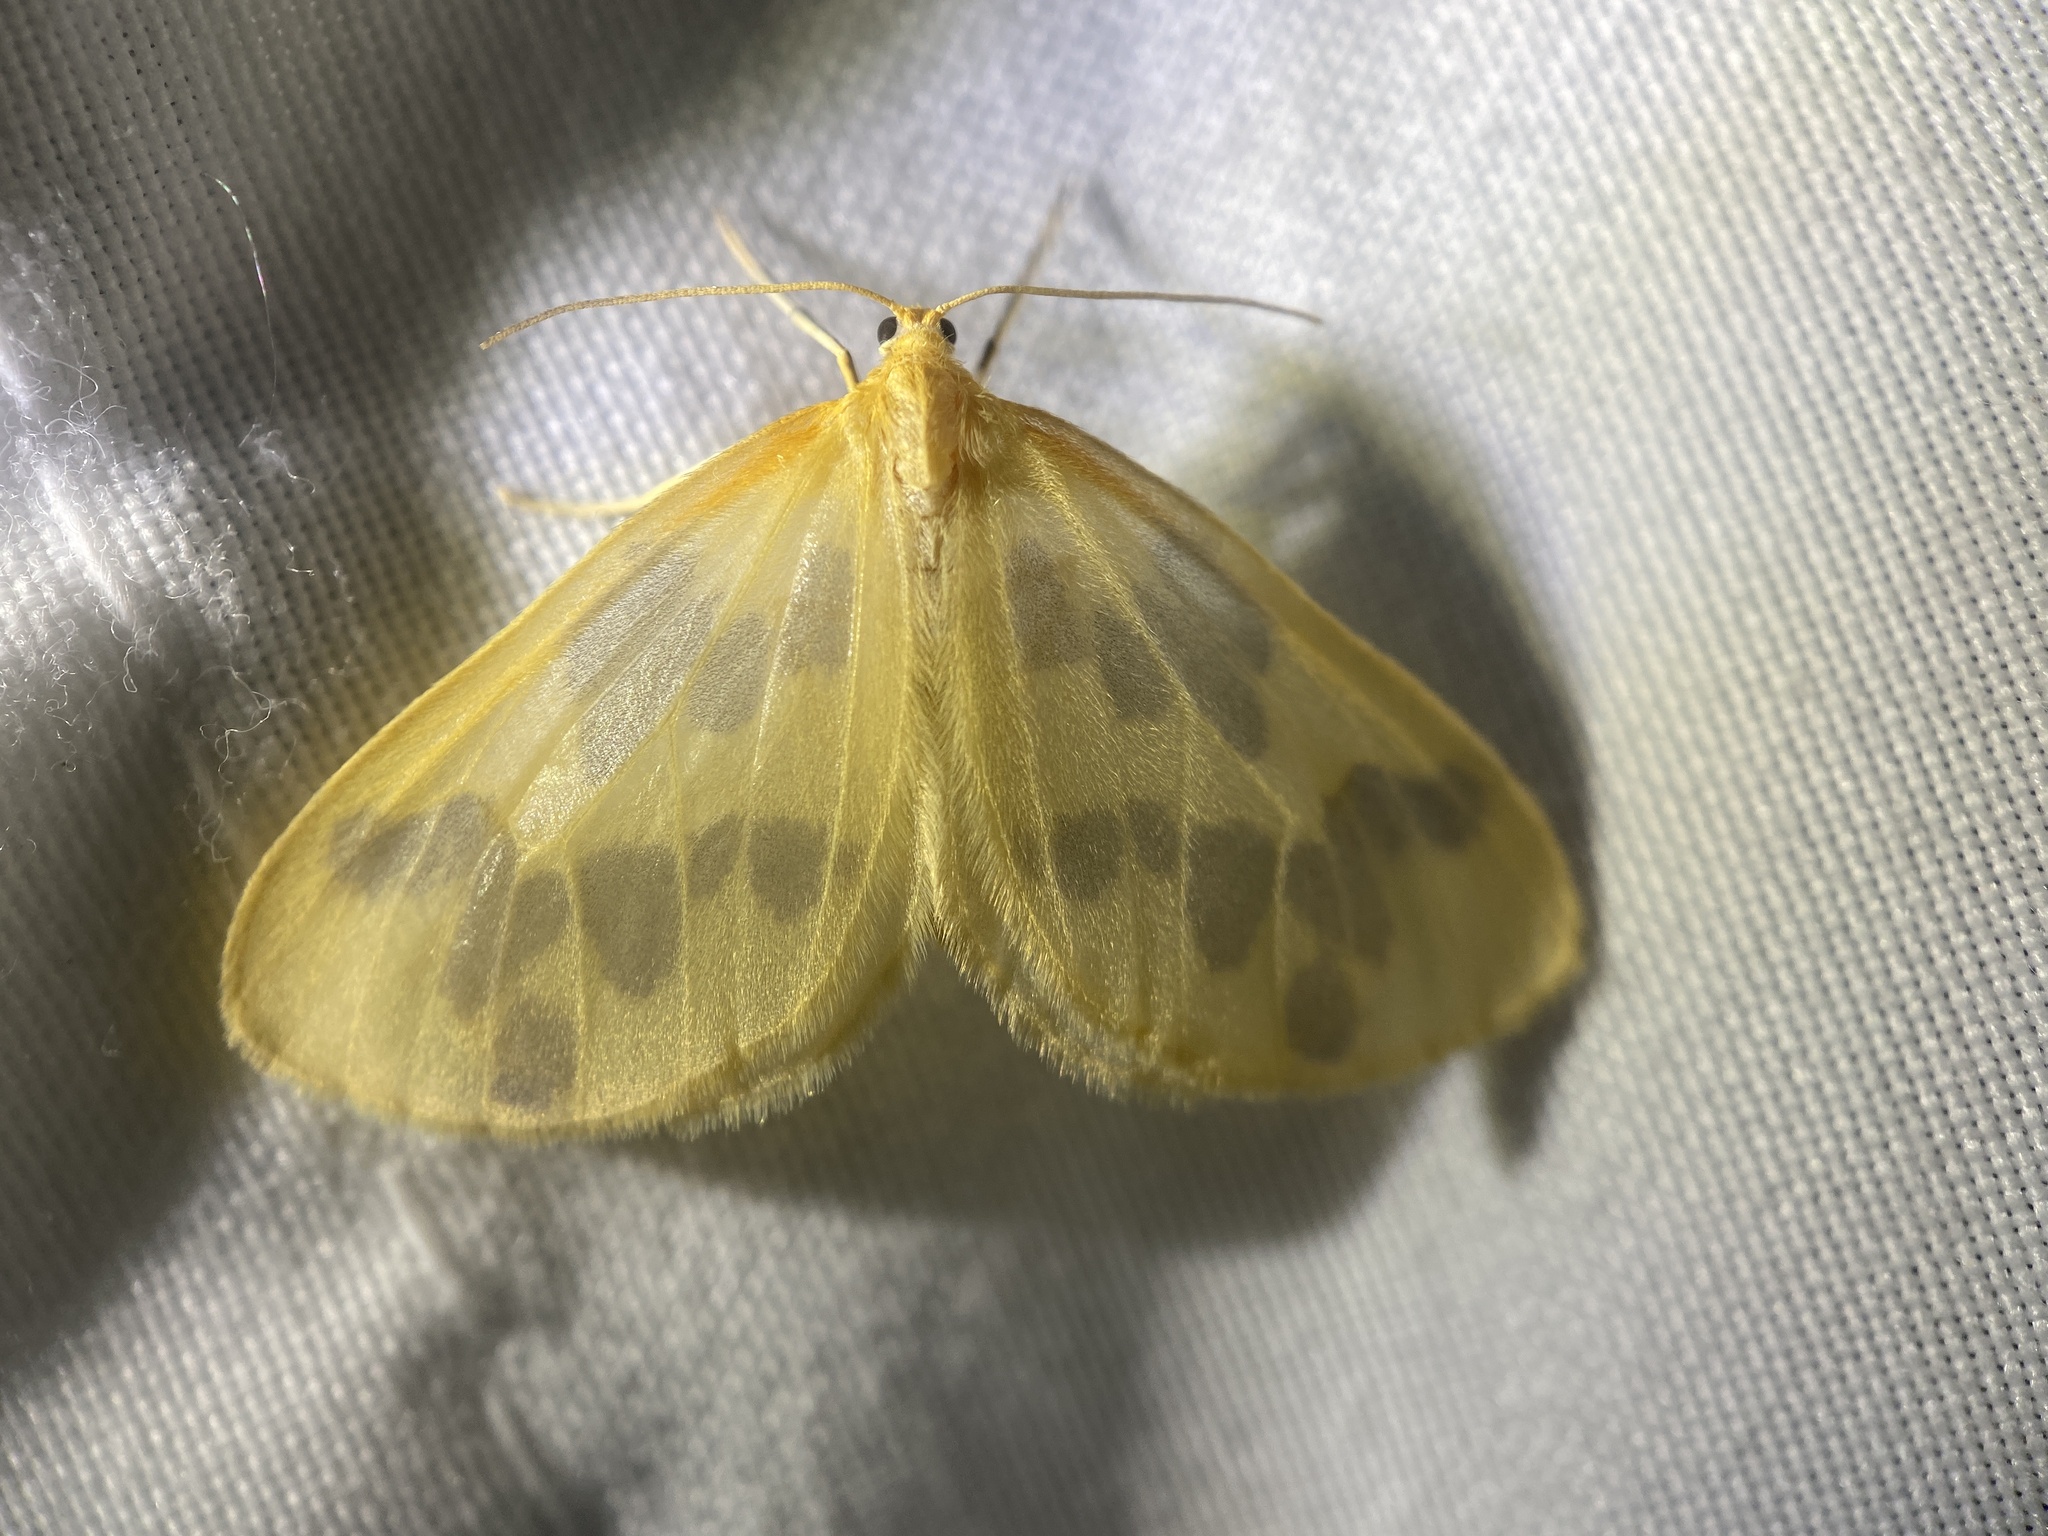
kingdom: Animalia
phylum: Arthropoda
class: Insecta
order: Lepidoptera
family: Geometridae
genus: Eubaphe
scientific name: Eubaphe mendica
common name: Beggar
